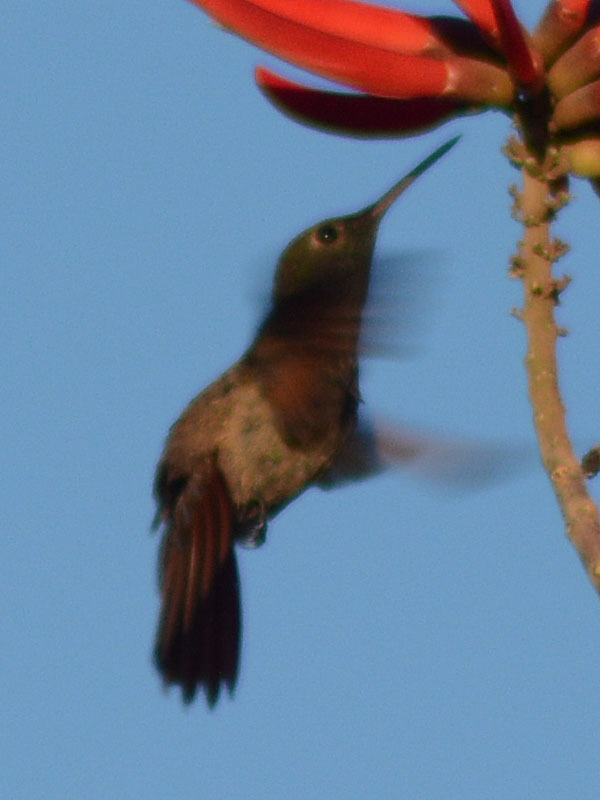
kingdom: Animalia
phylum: Chordata
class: Aves
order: Apodiformes
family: Trochilidae
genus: Saucerottia
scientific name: Saucerottia beryllina
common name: Berylline hummingbird
